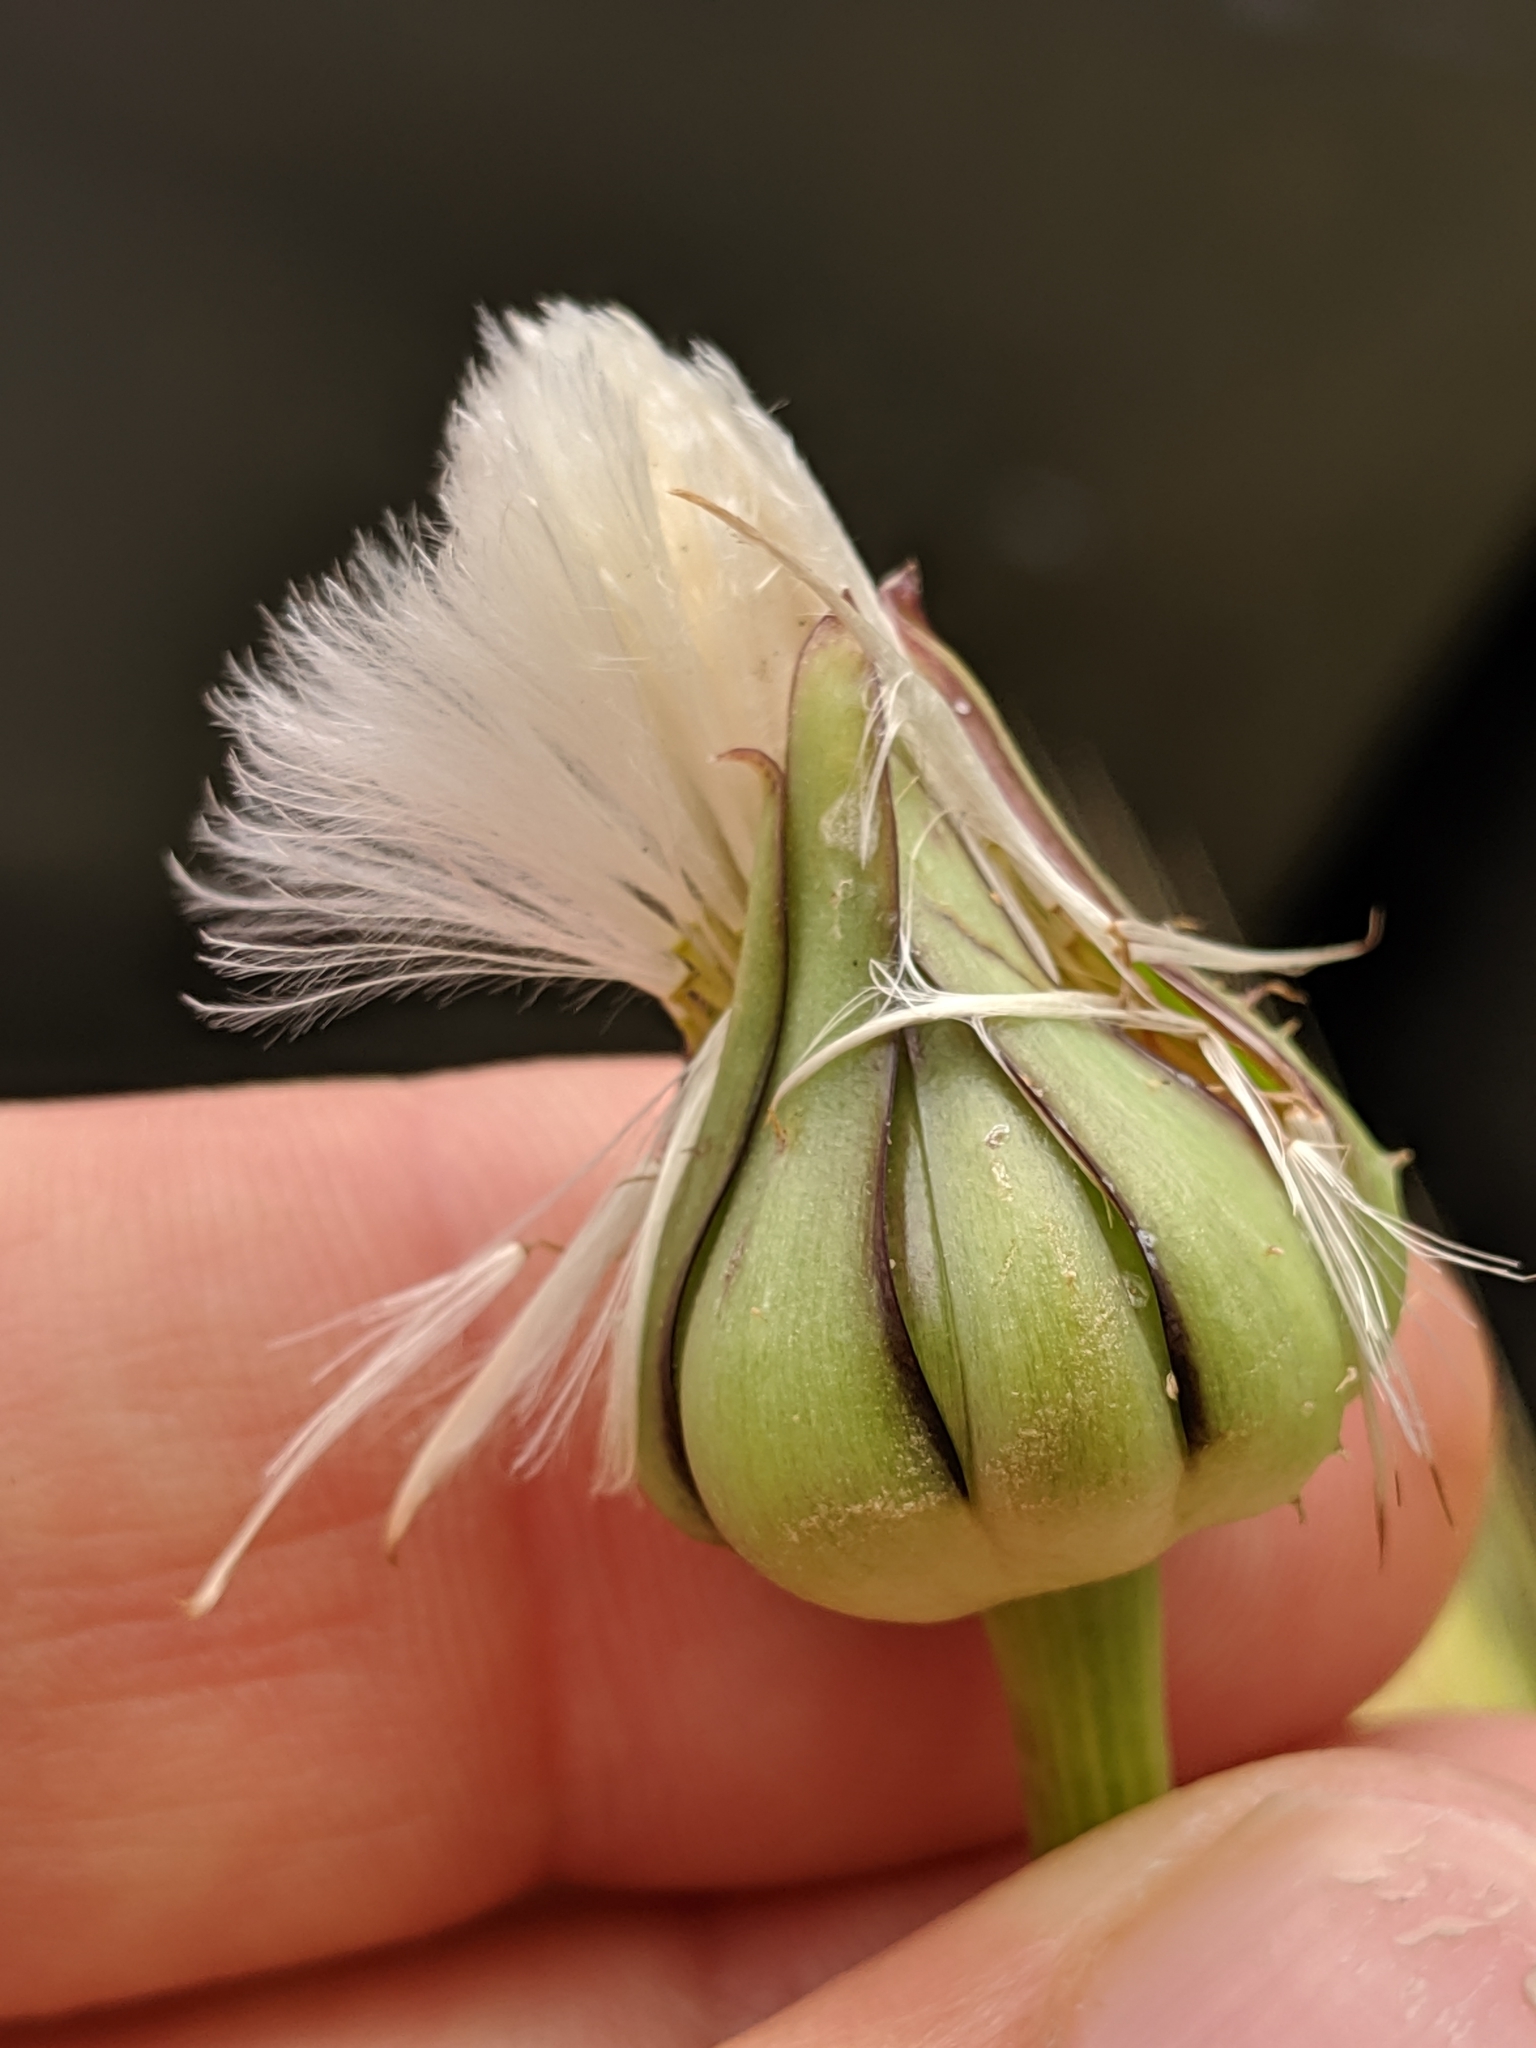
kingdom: Plantae
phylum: Tracheophyta
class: Magnoliopsida
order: Asterales
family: Asteraceae
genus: Urospermum
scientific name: Urospermum picroides
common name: False hawkbit
